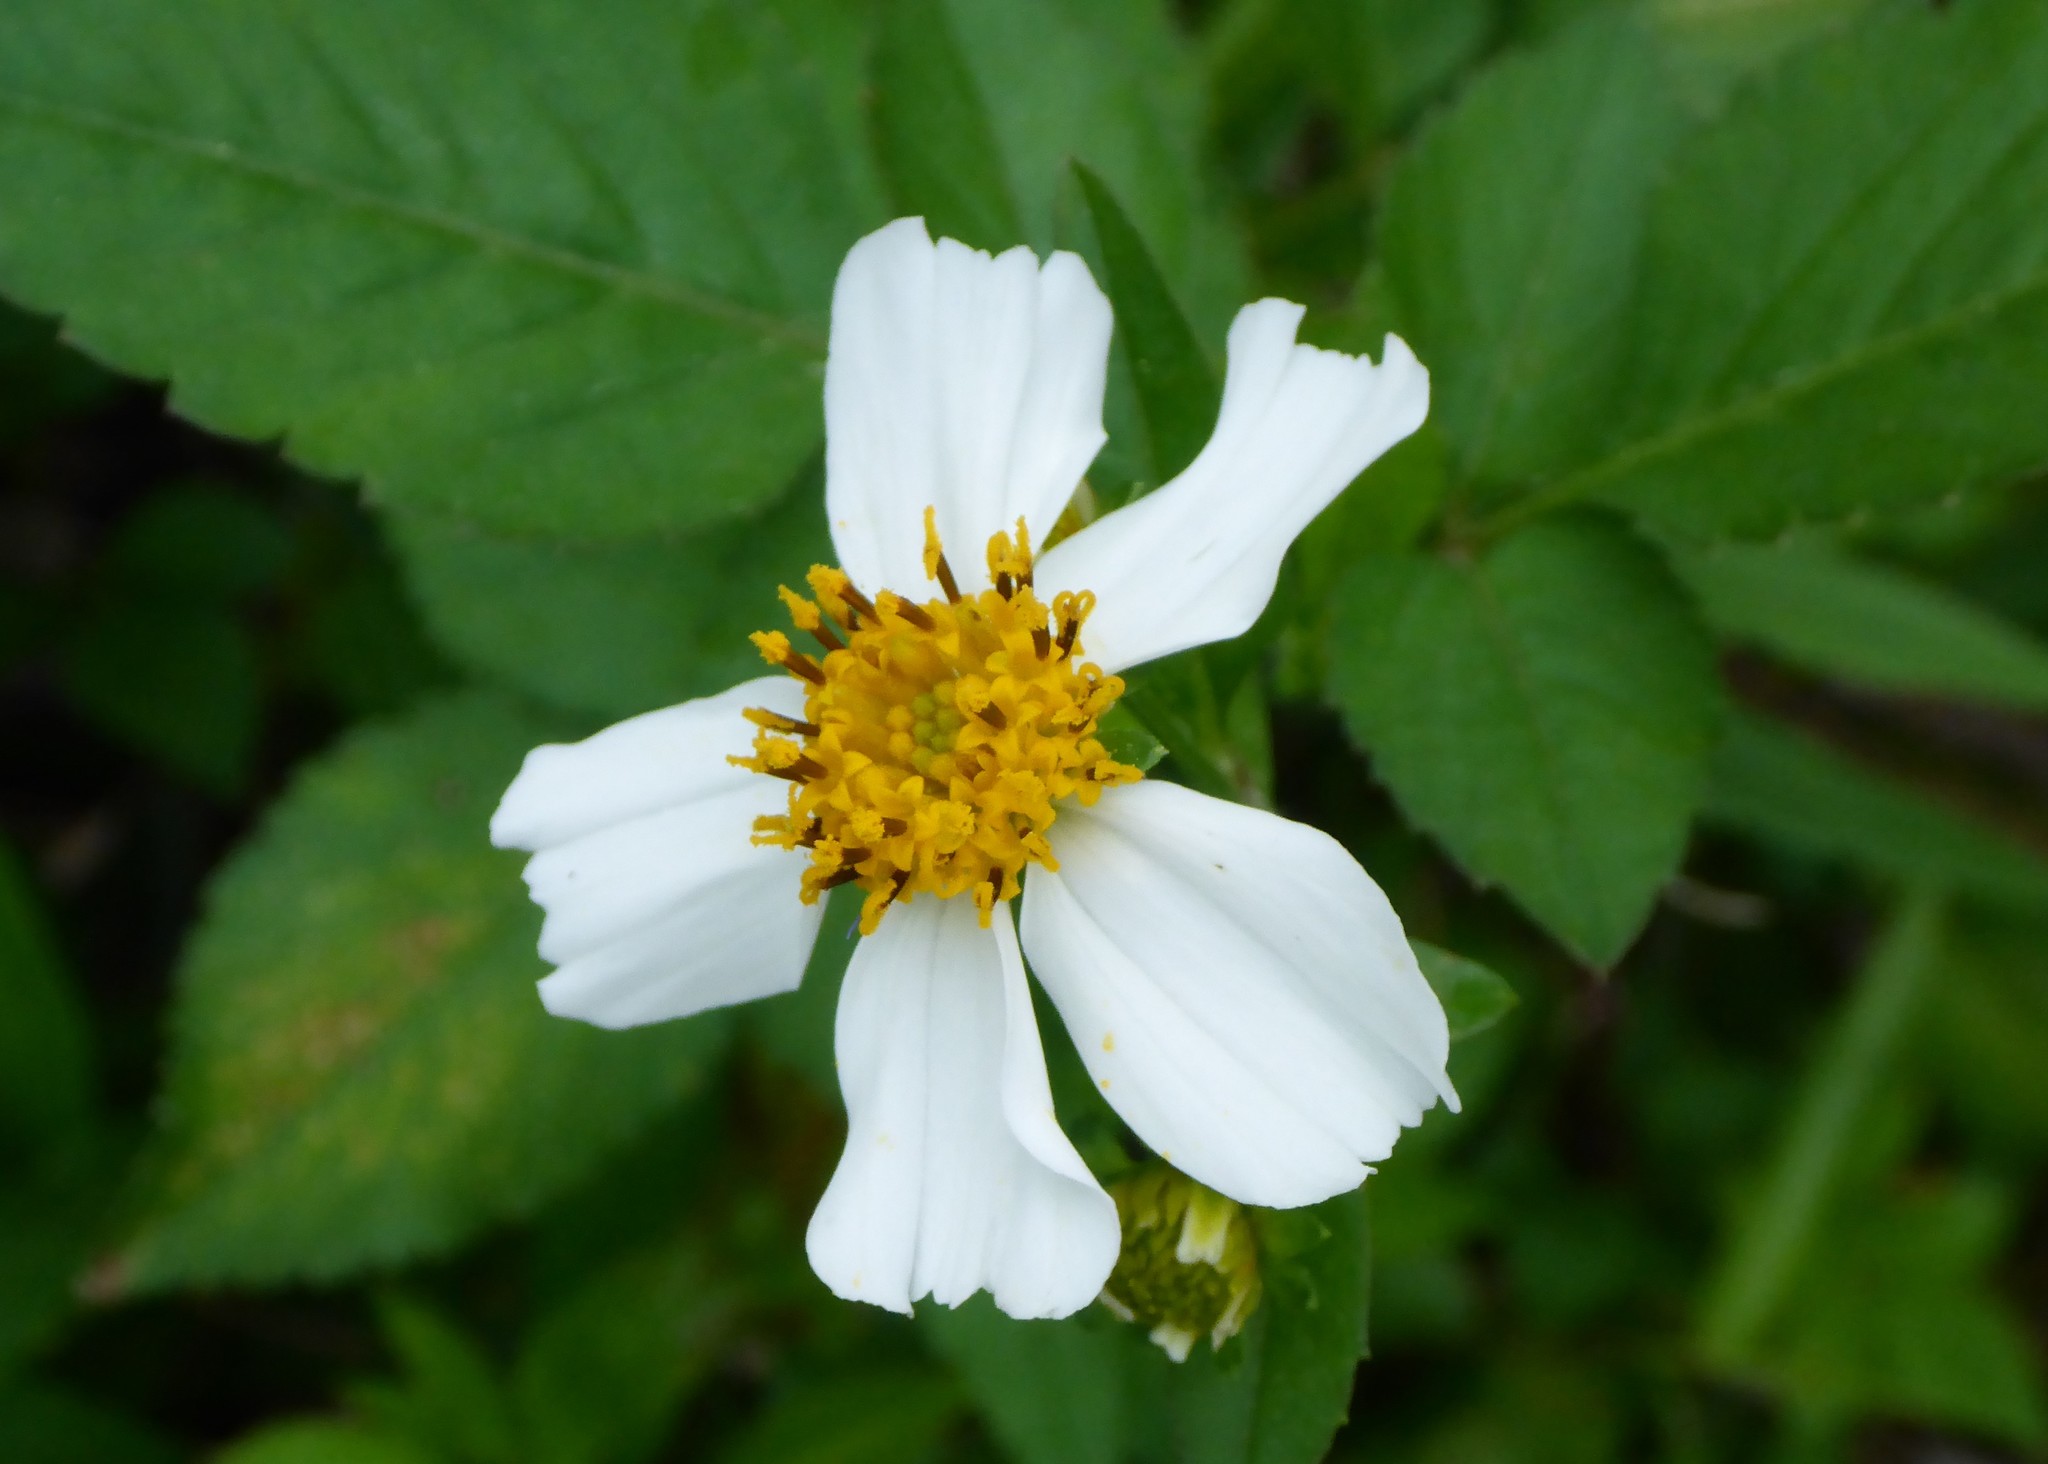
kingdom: Plantae
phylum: Tracheophyta
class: Magnoliopsida
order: Asterales
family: Asteraceae
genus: Bidens
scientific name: Bidens alba
